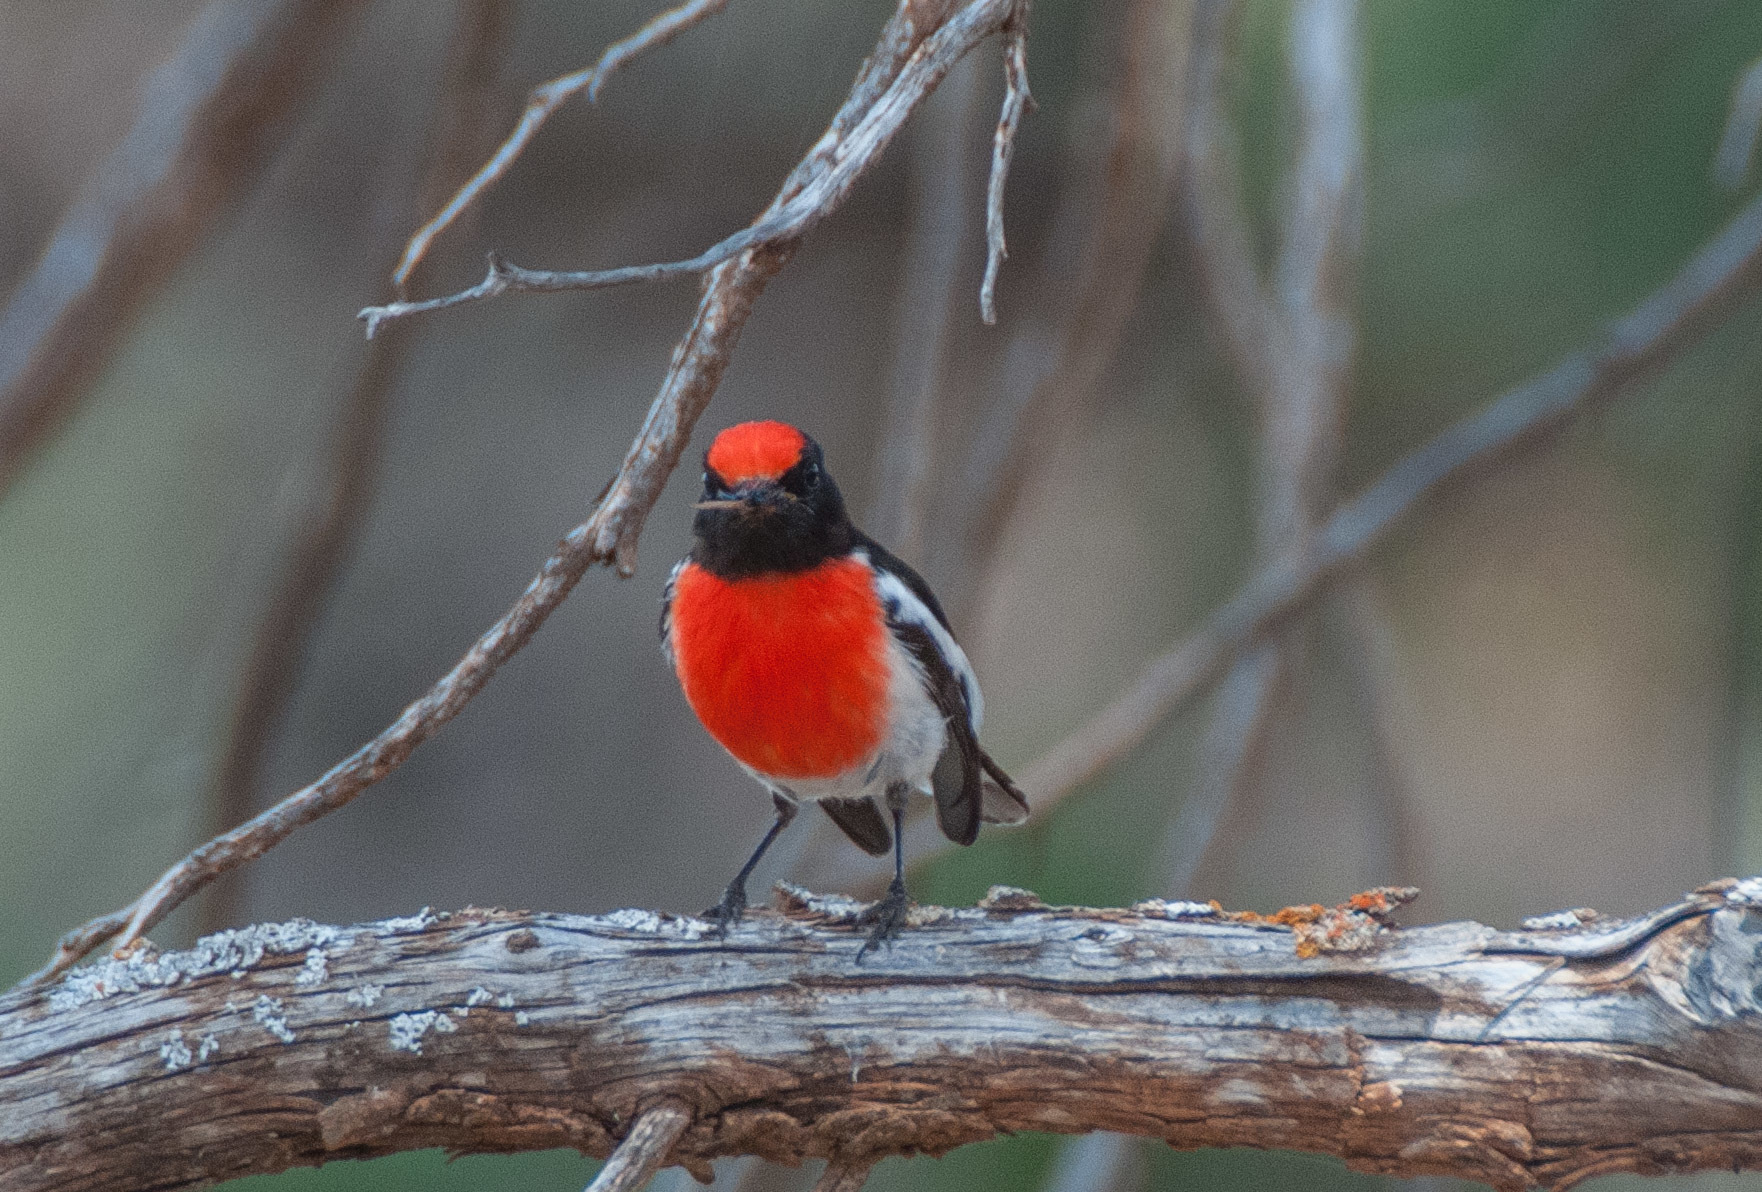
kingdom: Animalia
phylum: Chordata
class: Aves
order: Passeriformes
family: Petroicidae
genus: Petroica
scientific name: Petroica goodenovii
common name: Red-capped robin
